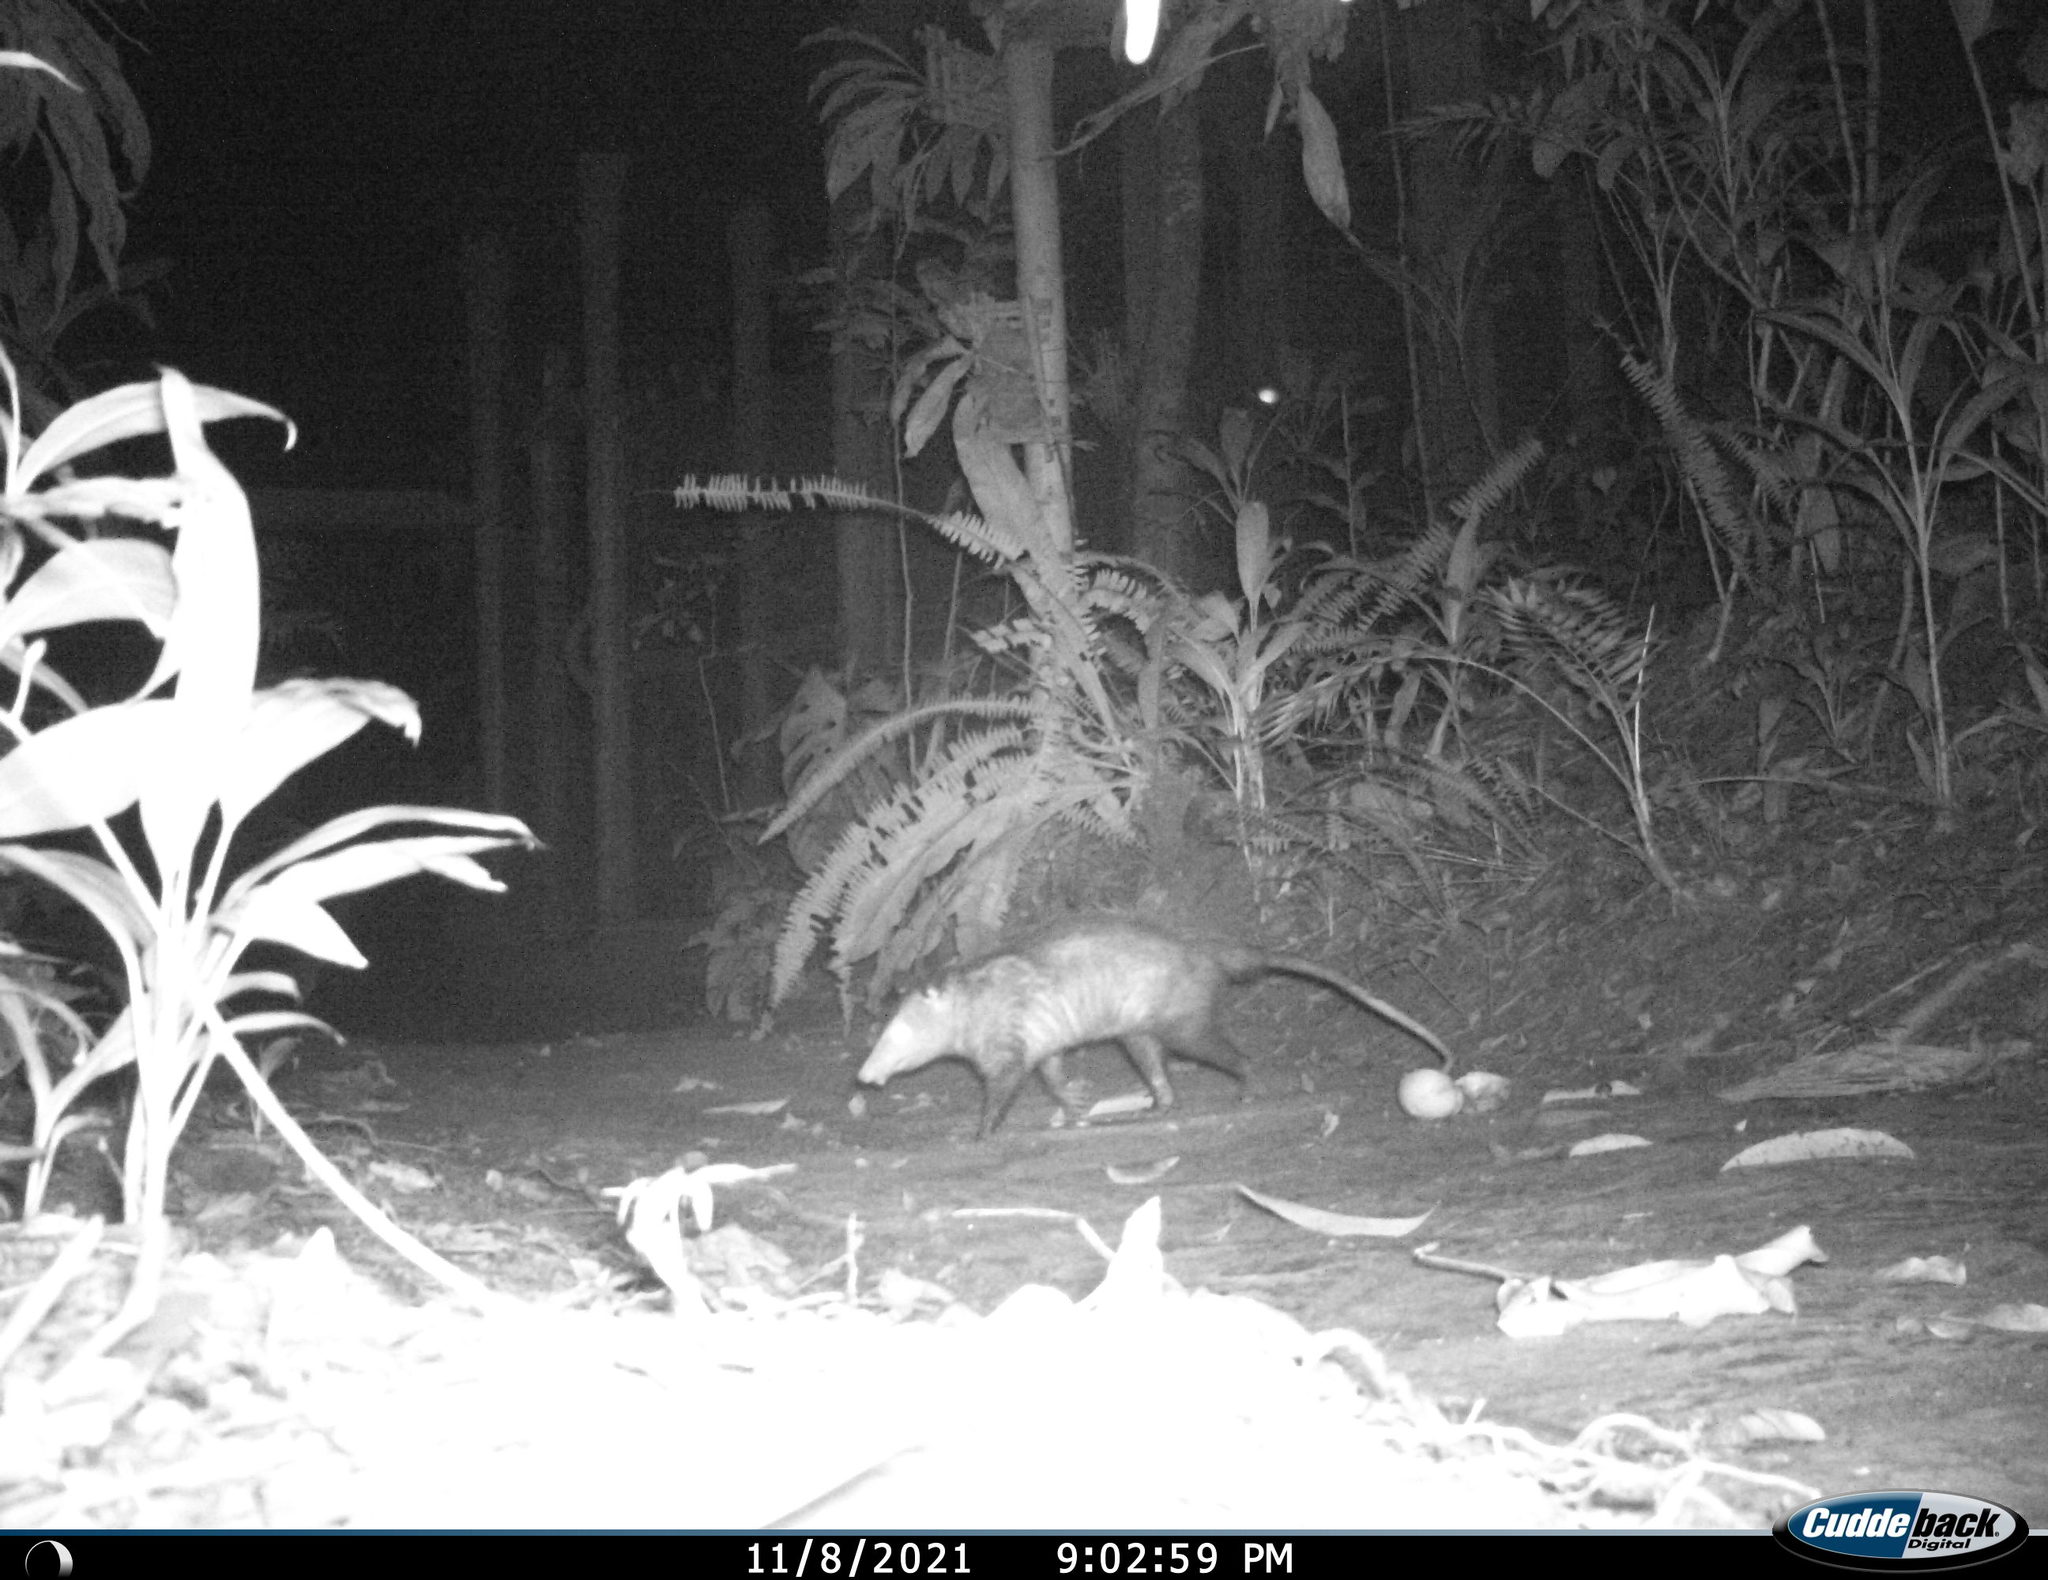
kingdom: Animalia
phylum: Chordata
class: Mammalia
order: Didelphimorphia
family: Didelphidae
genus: Didelphis
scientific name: Didelphis
